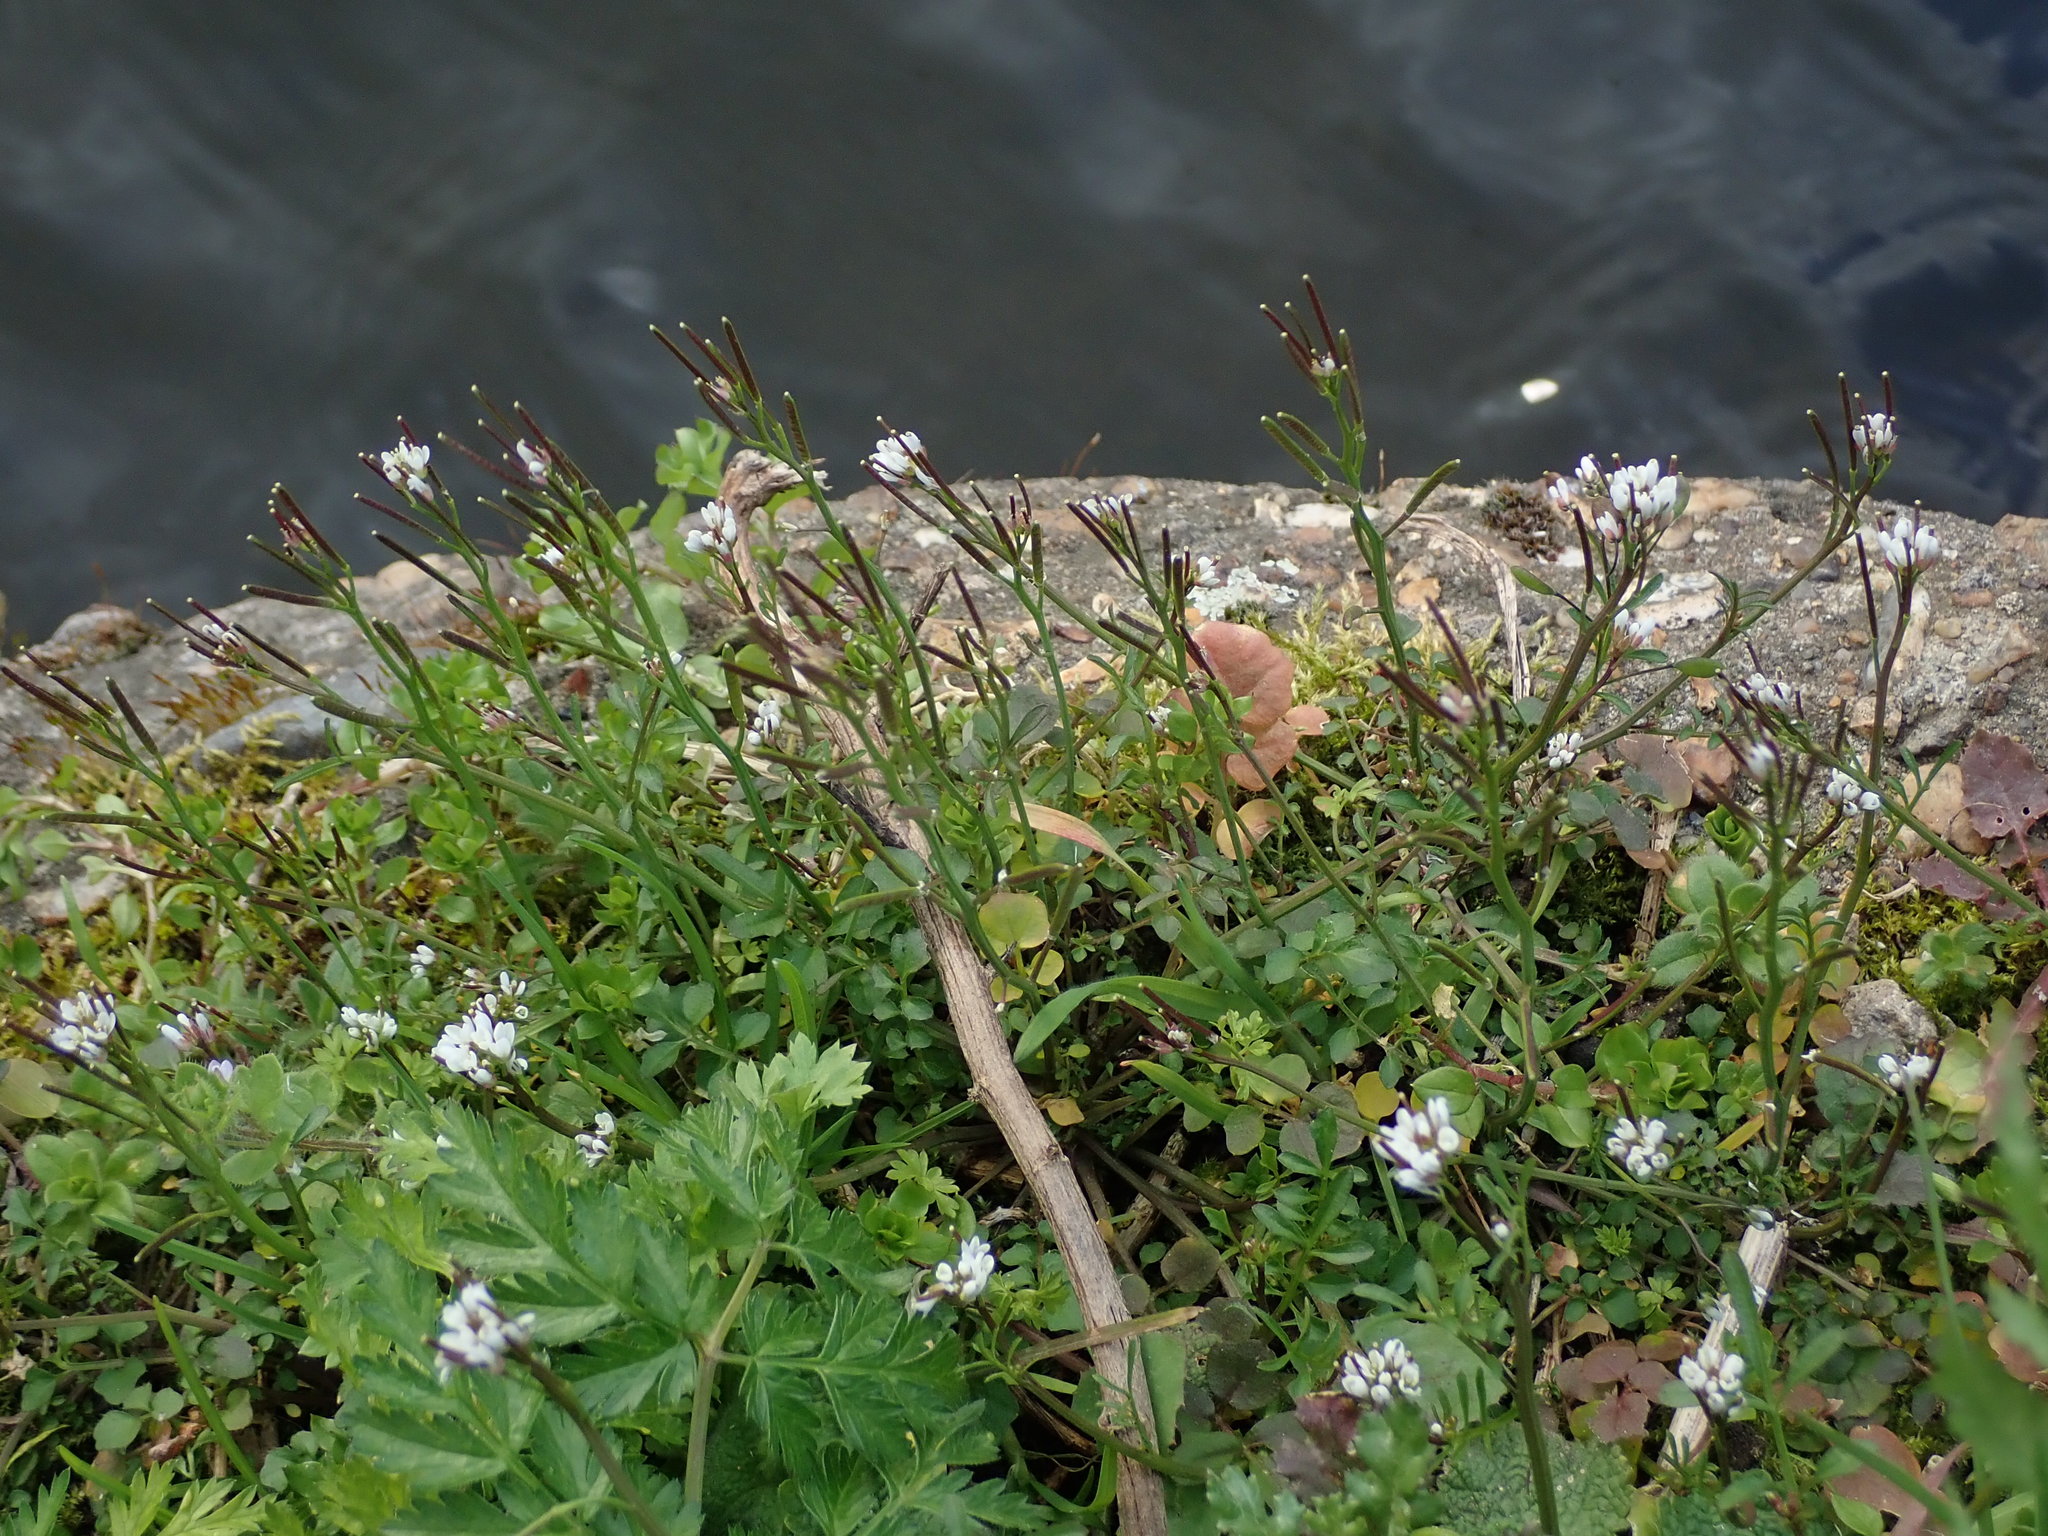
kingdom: Plantae
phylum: Tracheophyta
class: Magnoliopsida
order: Brassicales
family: Brassicaceae
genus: Cardamine
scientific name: Cardamine hirsuta
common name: Hairy bittercress
